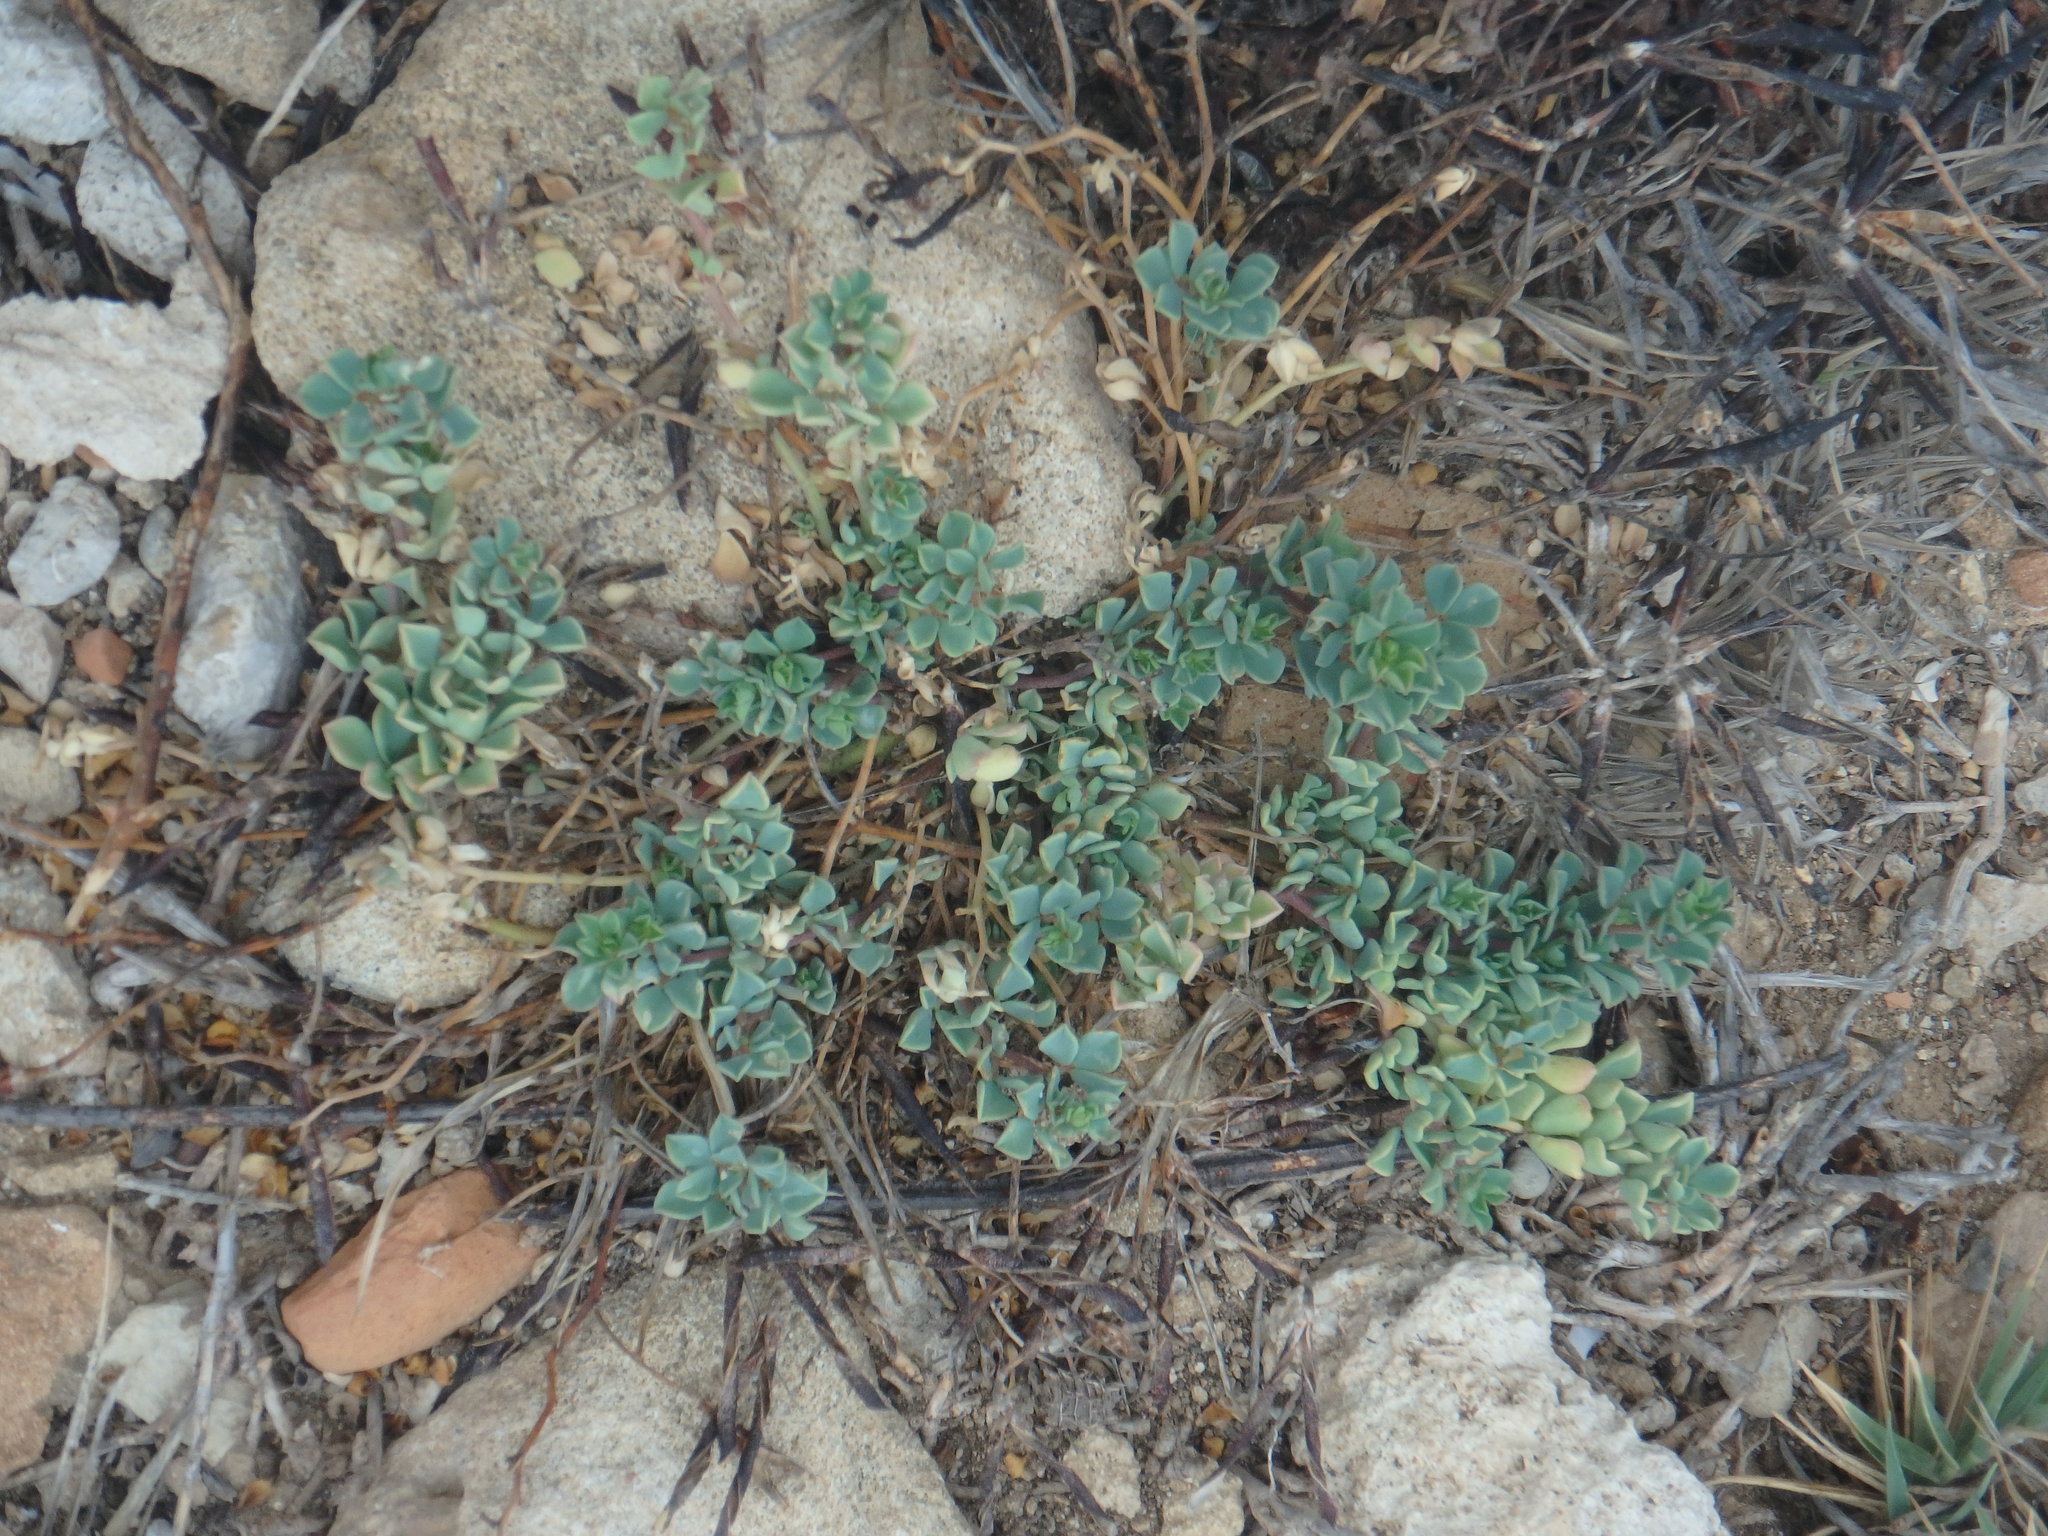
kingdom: Plantae
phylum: Tracheophyta
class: Magnoliopsida
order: Fabales
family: Fabaceae
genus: Lotus
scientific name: Lotus cytisoides
